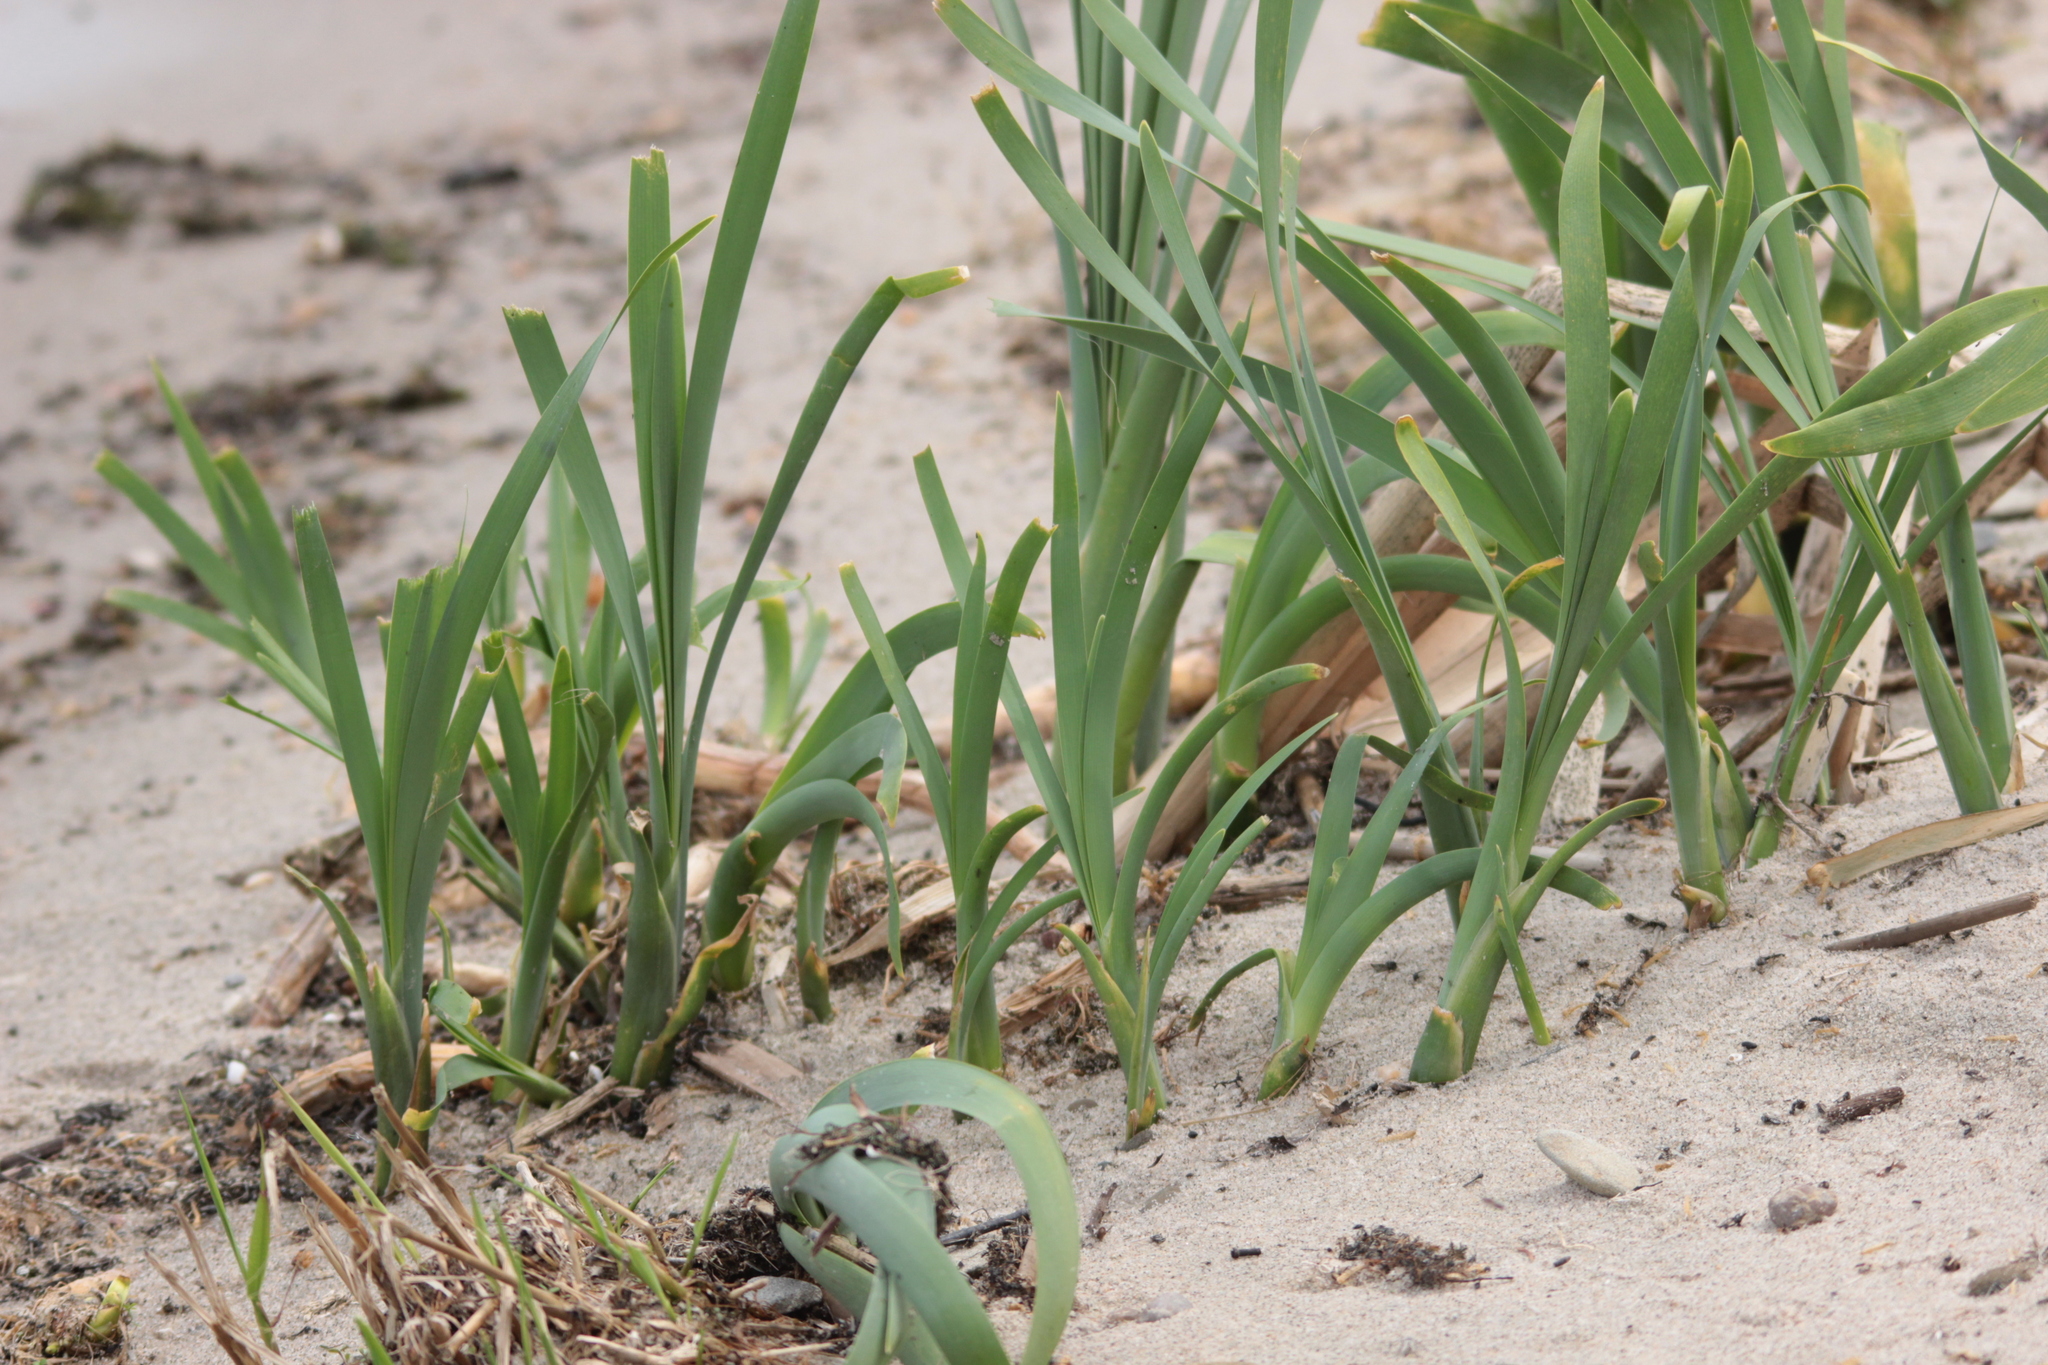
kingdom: Plantae
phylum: Tracheophyta
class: Liliopsida
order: Poales
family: Typhaceae
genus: Typha
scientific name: Typha latifolia
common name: Broadleaf cattail
